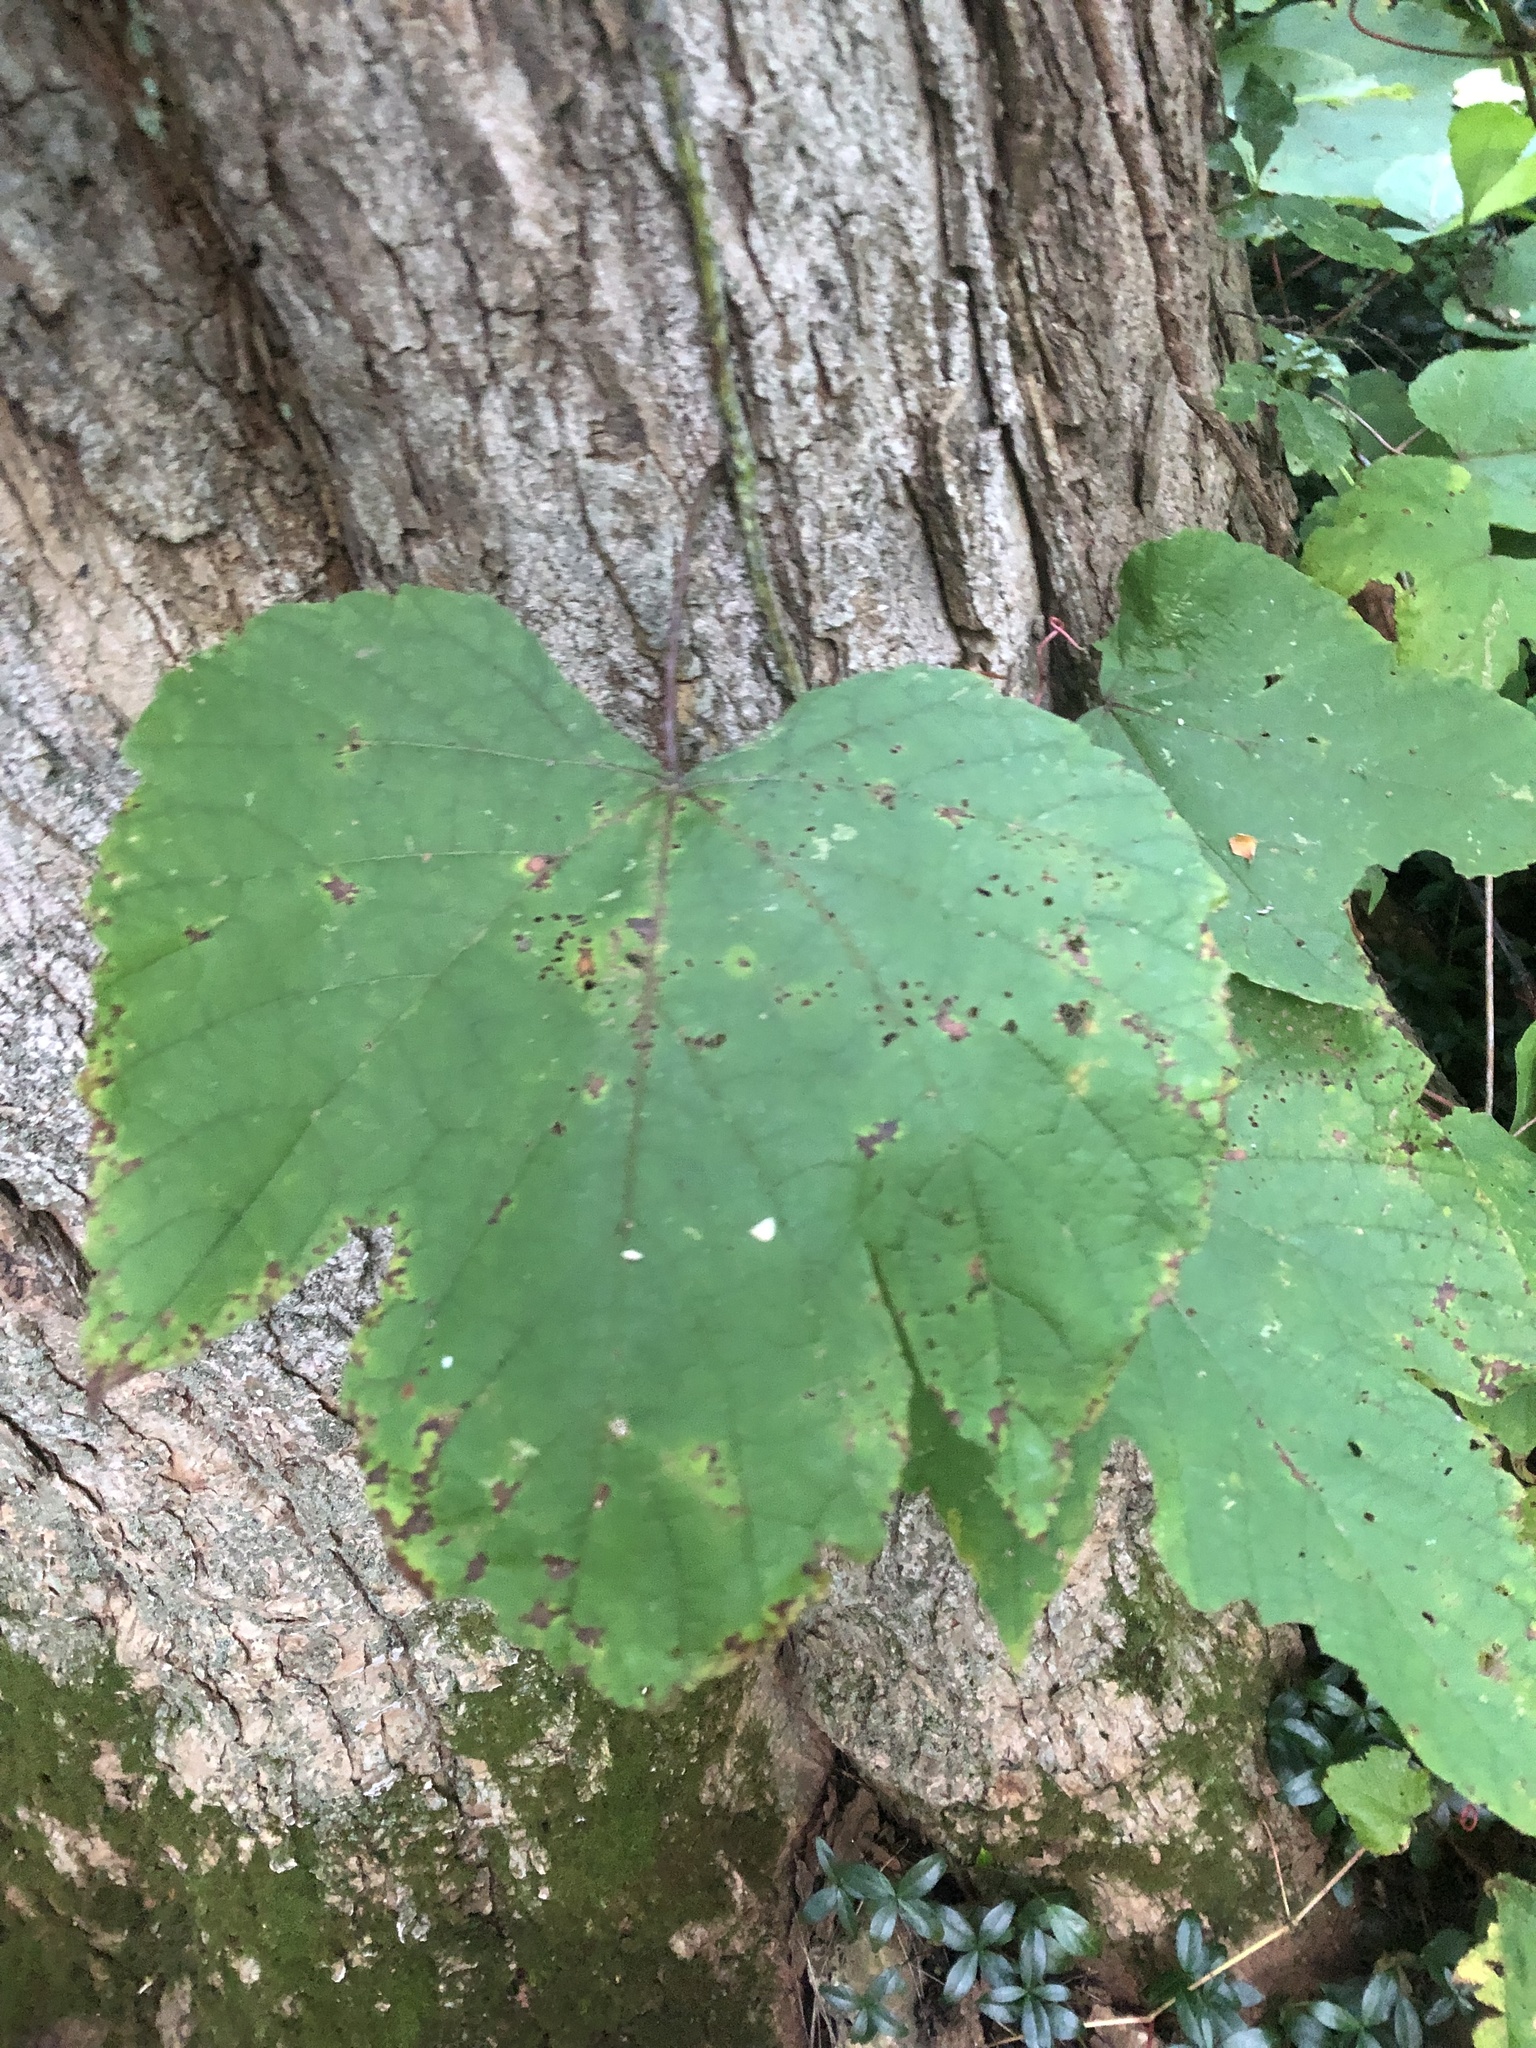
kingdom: Plantae
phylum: Tracheophyta
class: Magnoliopsida
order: Vitales
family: Vitaceae
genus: Vitis
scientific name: Vitis aestivalis
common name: Pigeon grape
